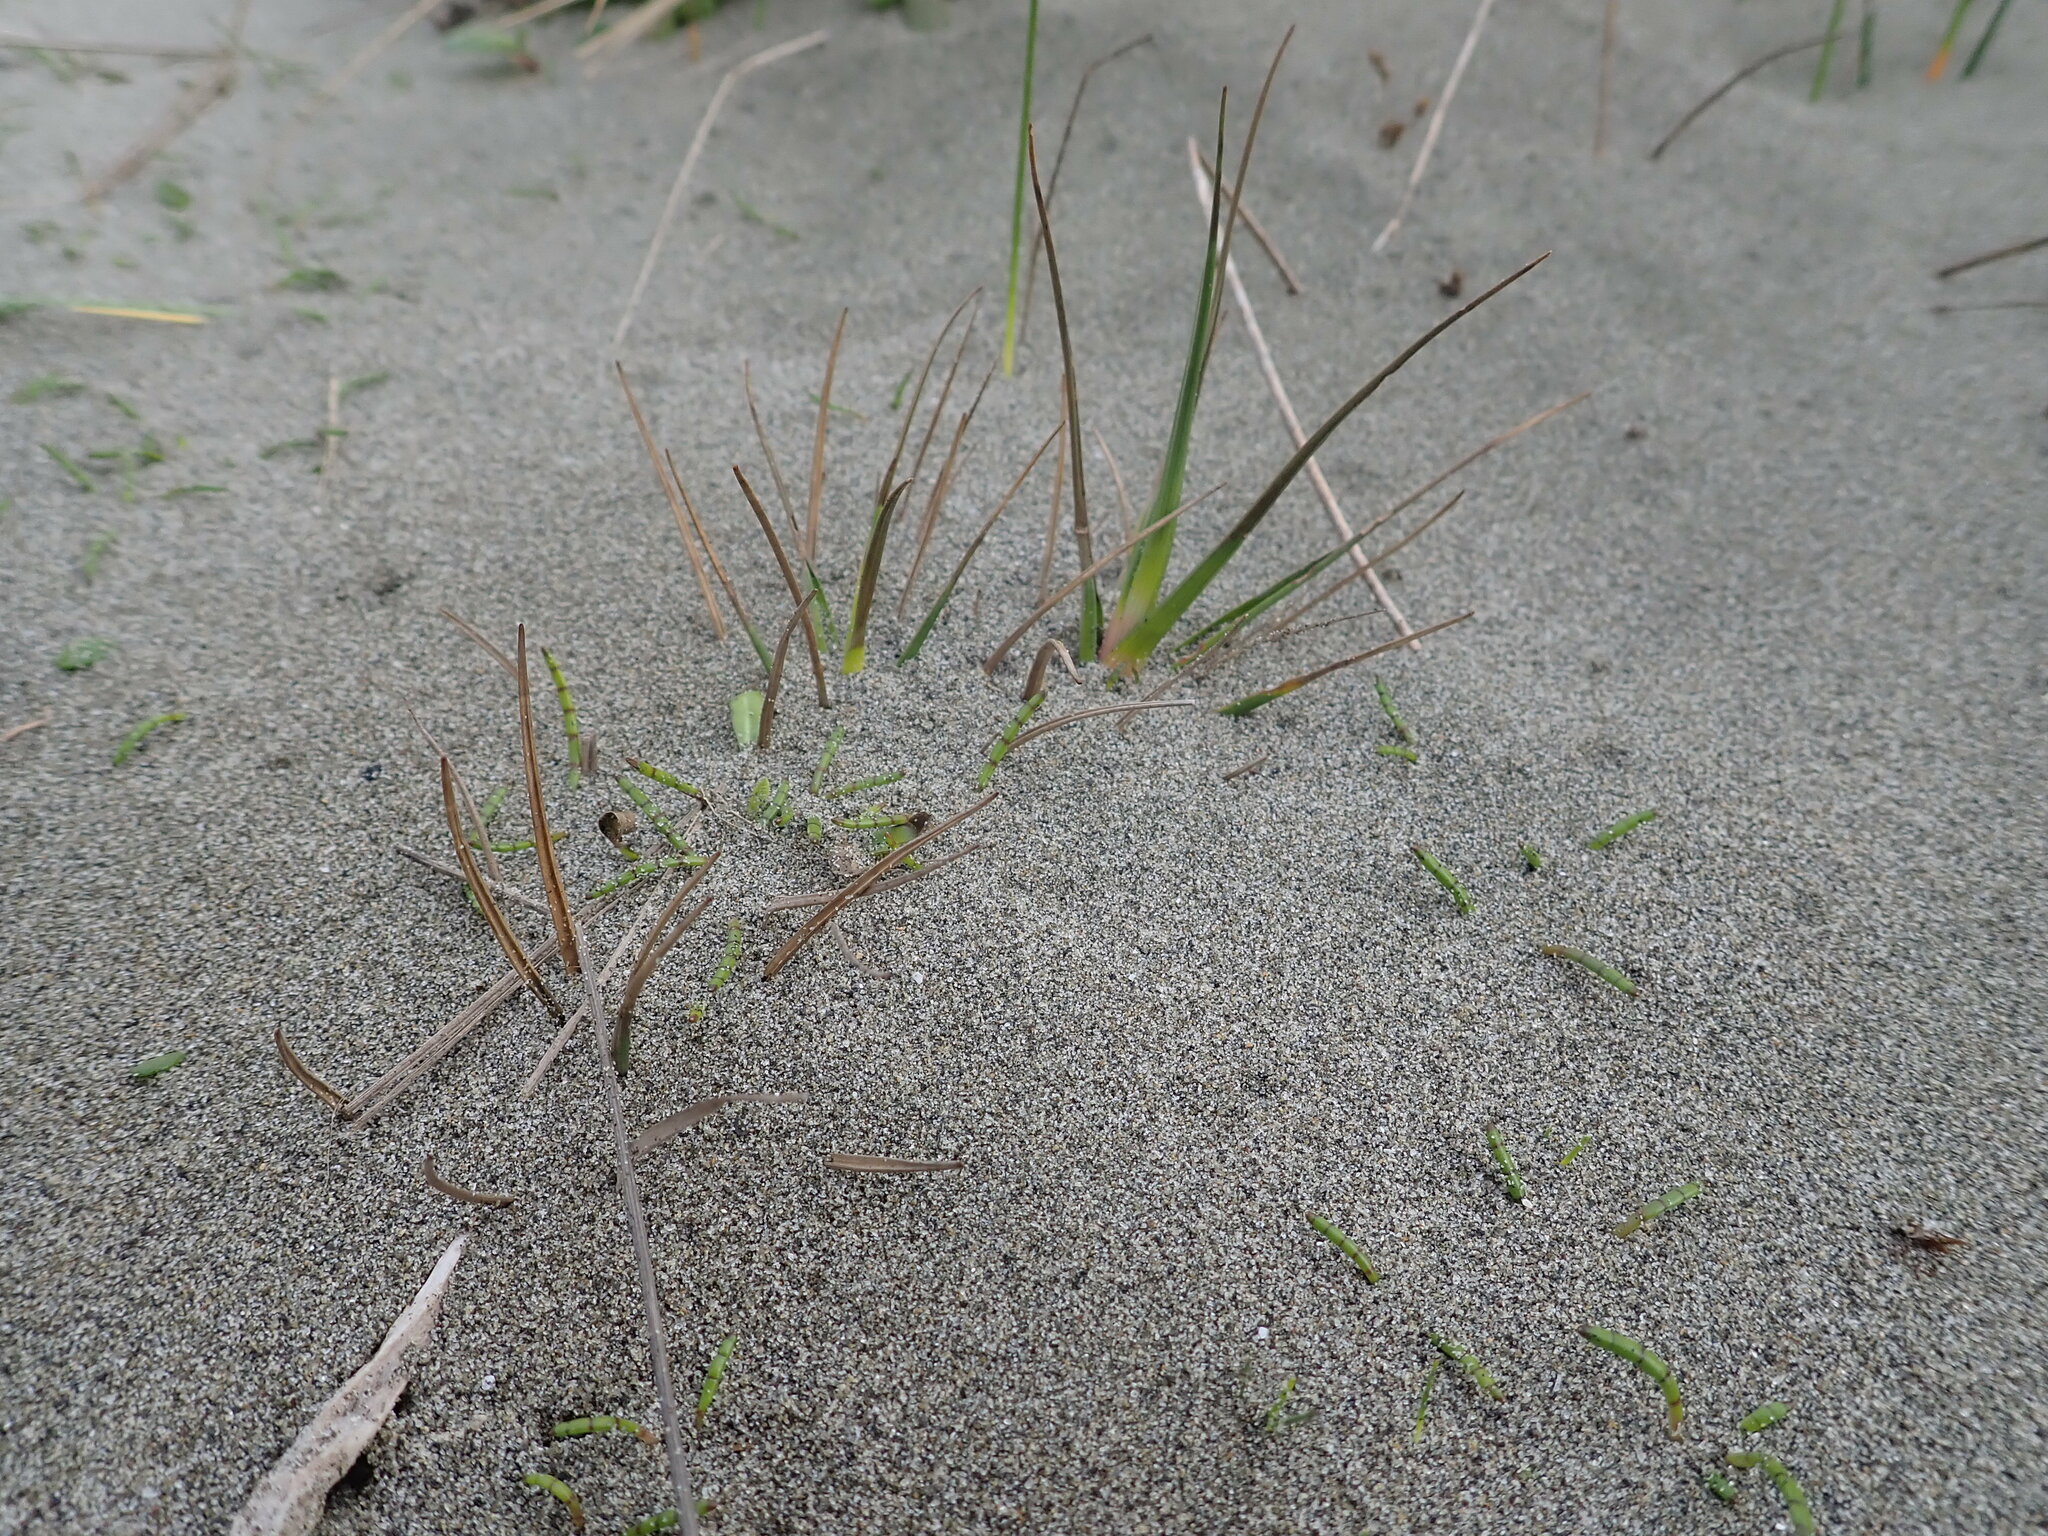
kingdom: Plantae
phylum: Tracheophyta
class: Liliopsida
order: Poales
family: Juncaceae
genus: Juncus
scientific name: Juncus caespiticius
